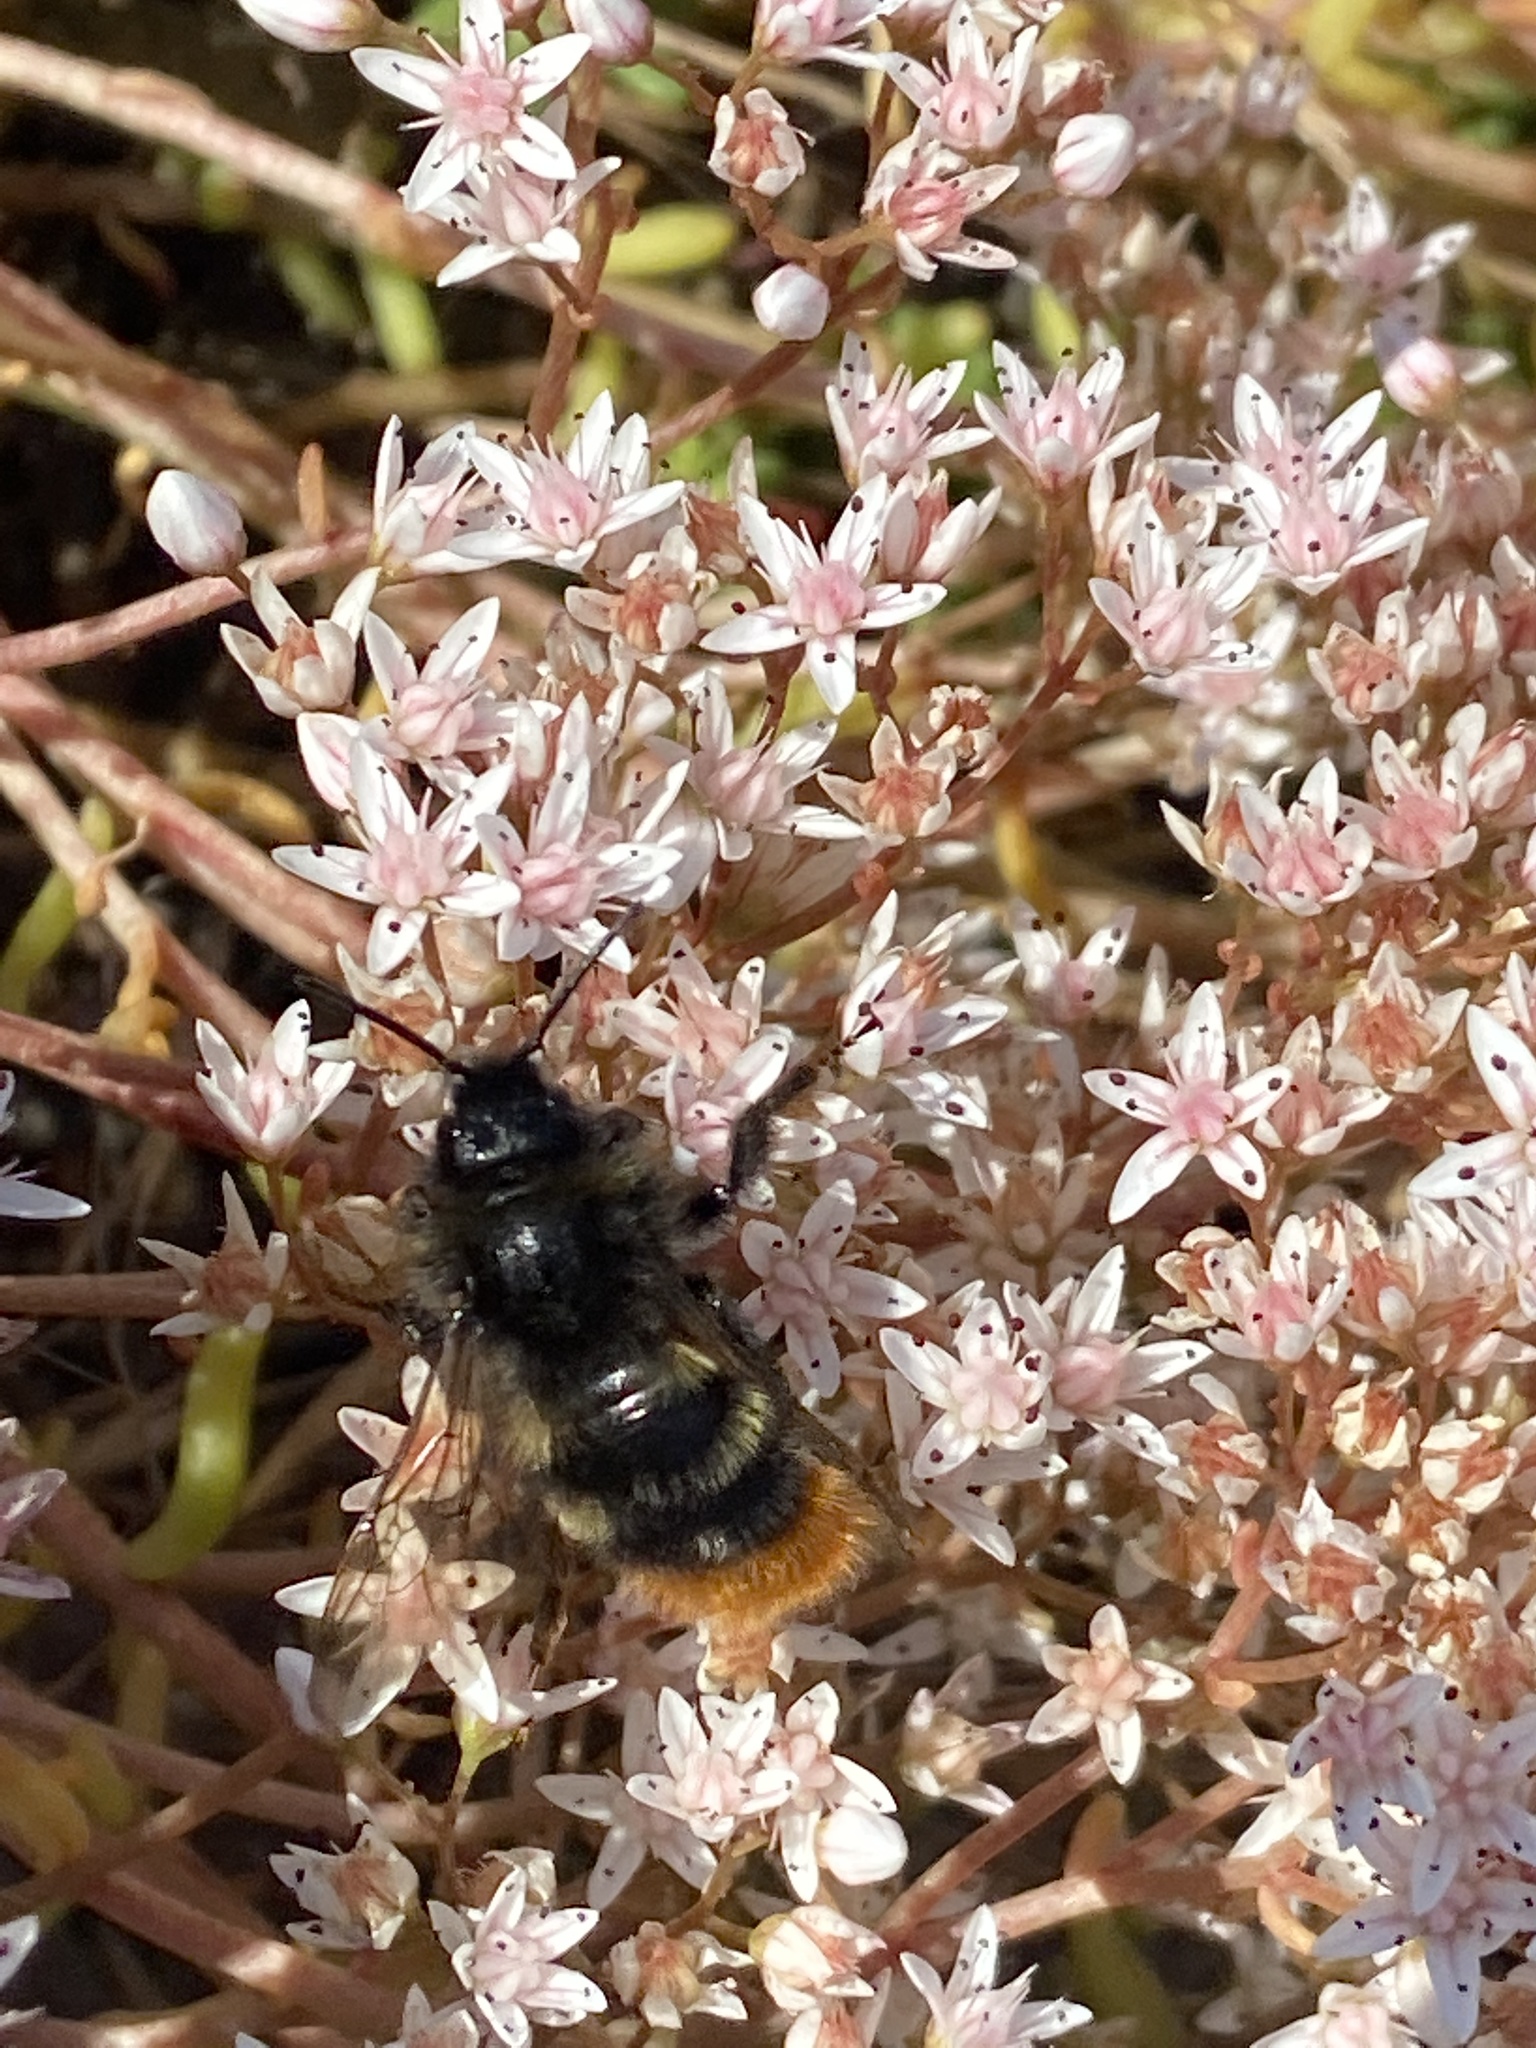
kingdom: Animalia
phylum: Arthropoda
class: Insecta
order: Hymenoptera
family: Apidae
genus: Bombus
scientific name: Bombus rupestris
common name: Hill cuckoo-bee
